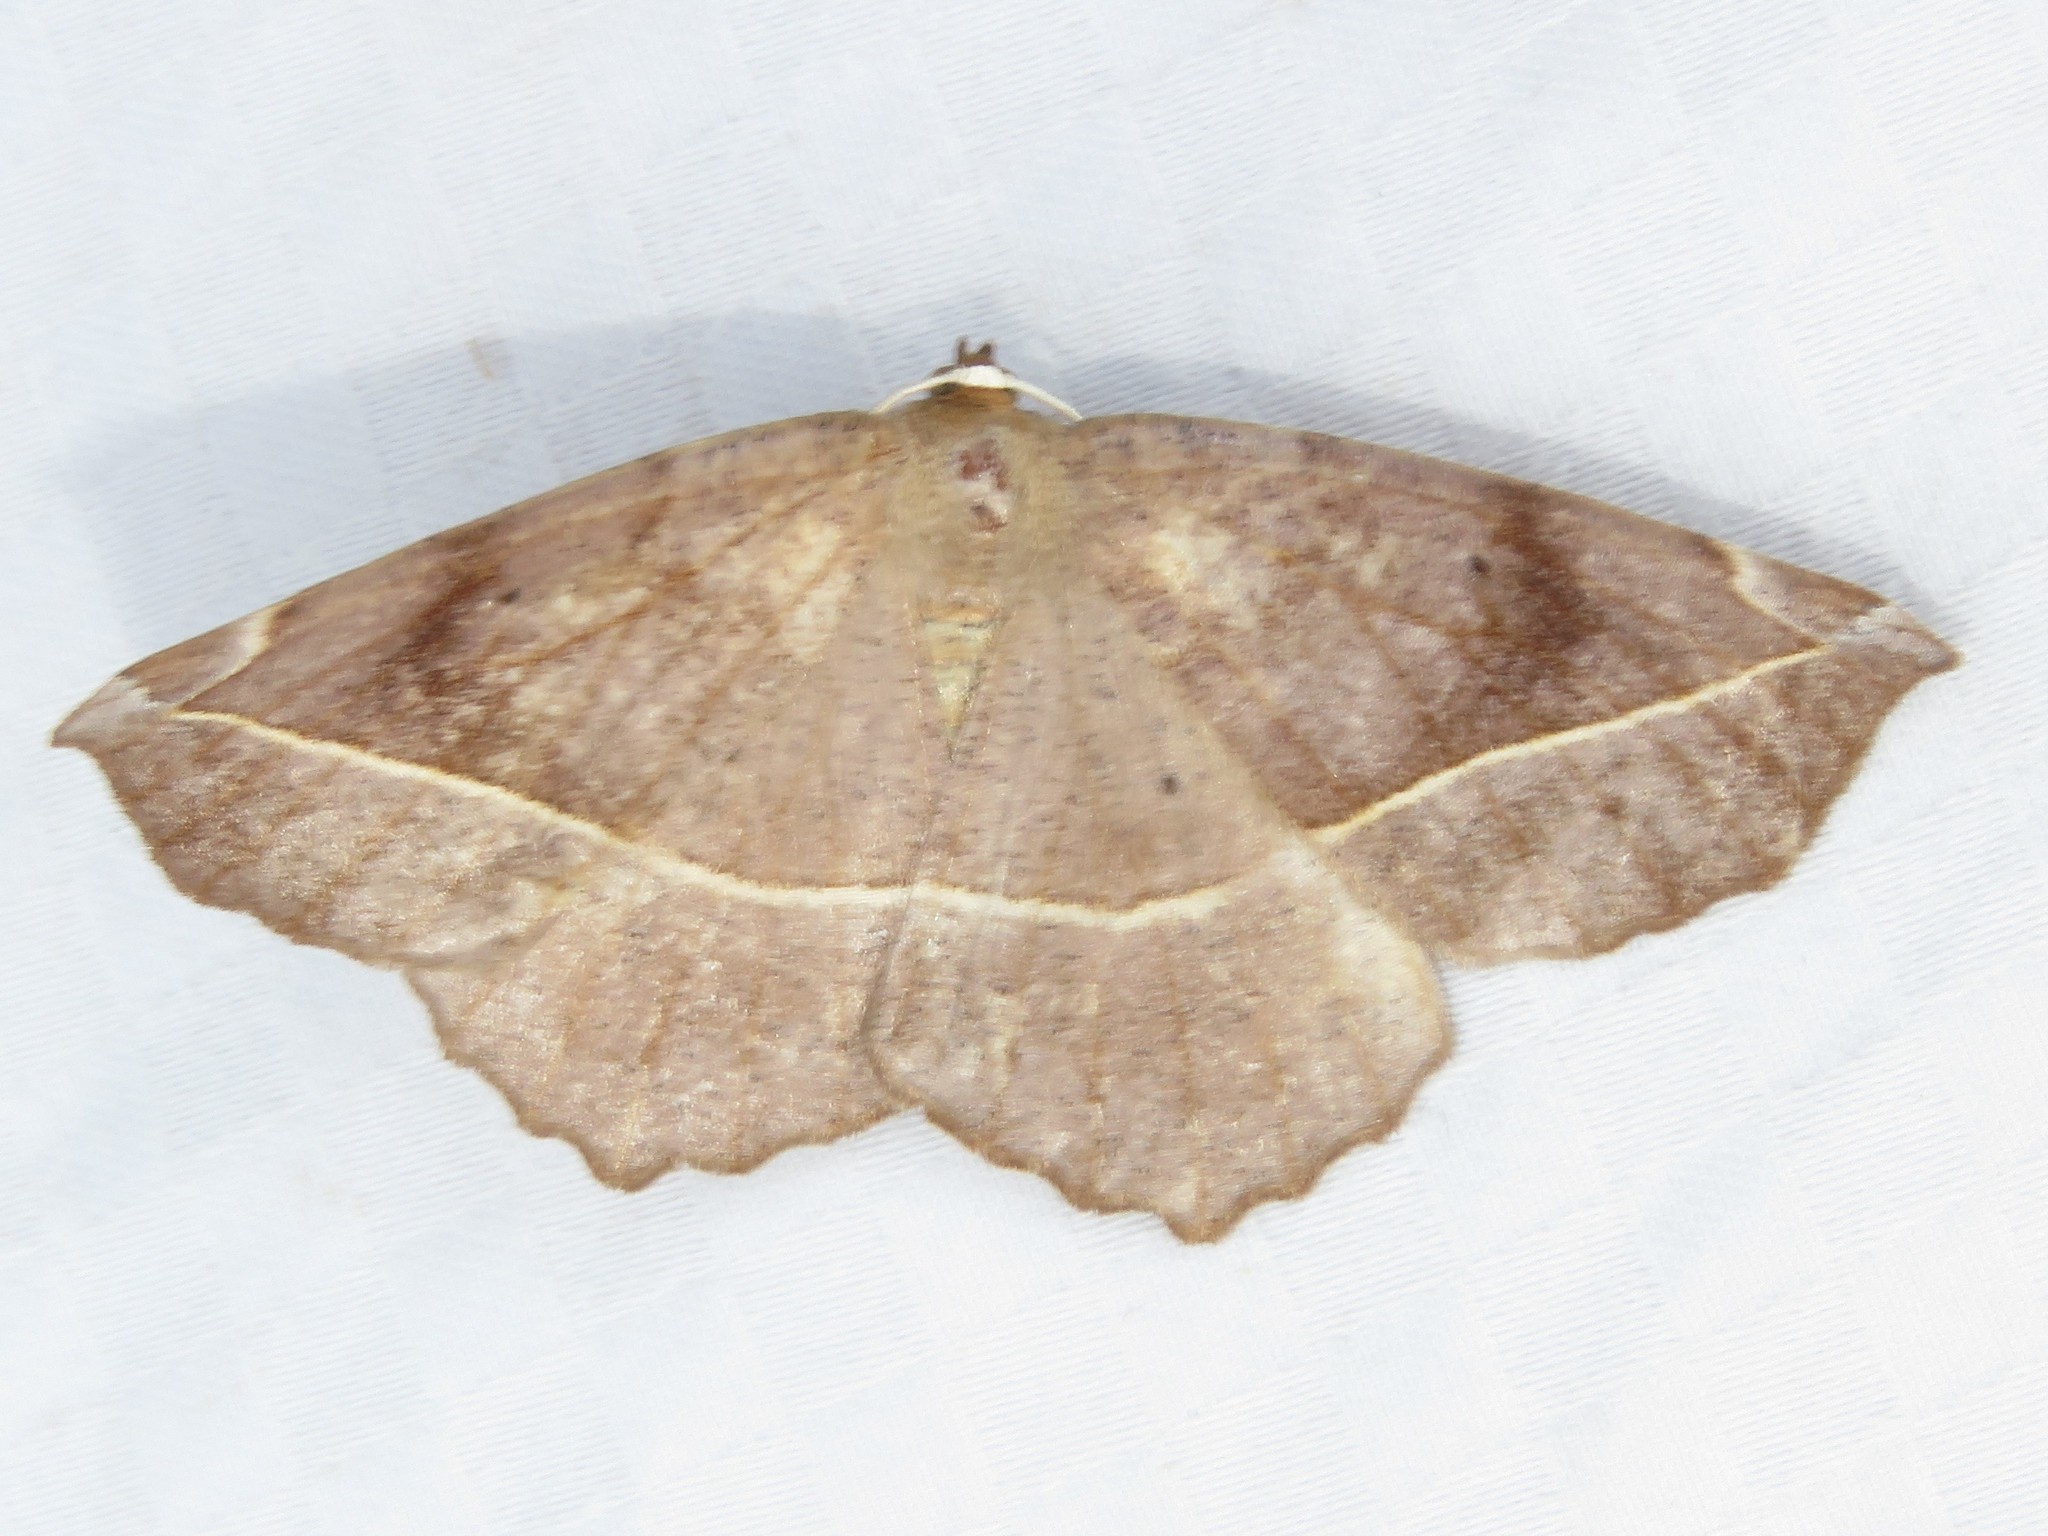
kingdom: Animalia
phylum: Arthropoda
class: Insecta
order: Lepidoptera
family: Geometridae
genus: Eutrapela
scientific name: Eutrapela clemataria
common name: Curved-toothed geometer
